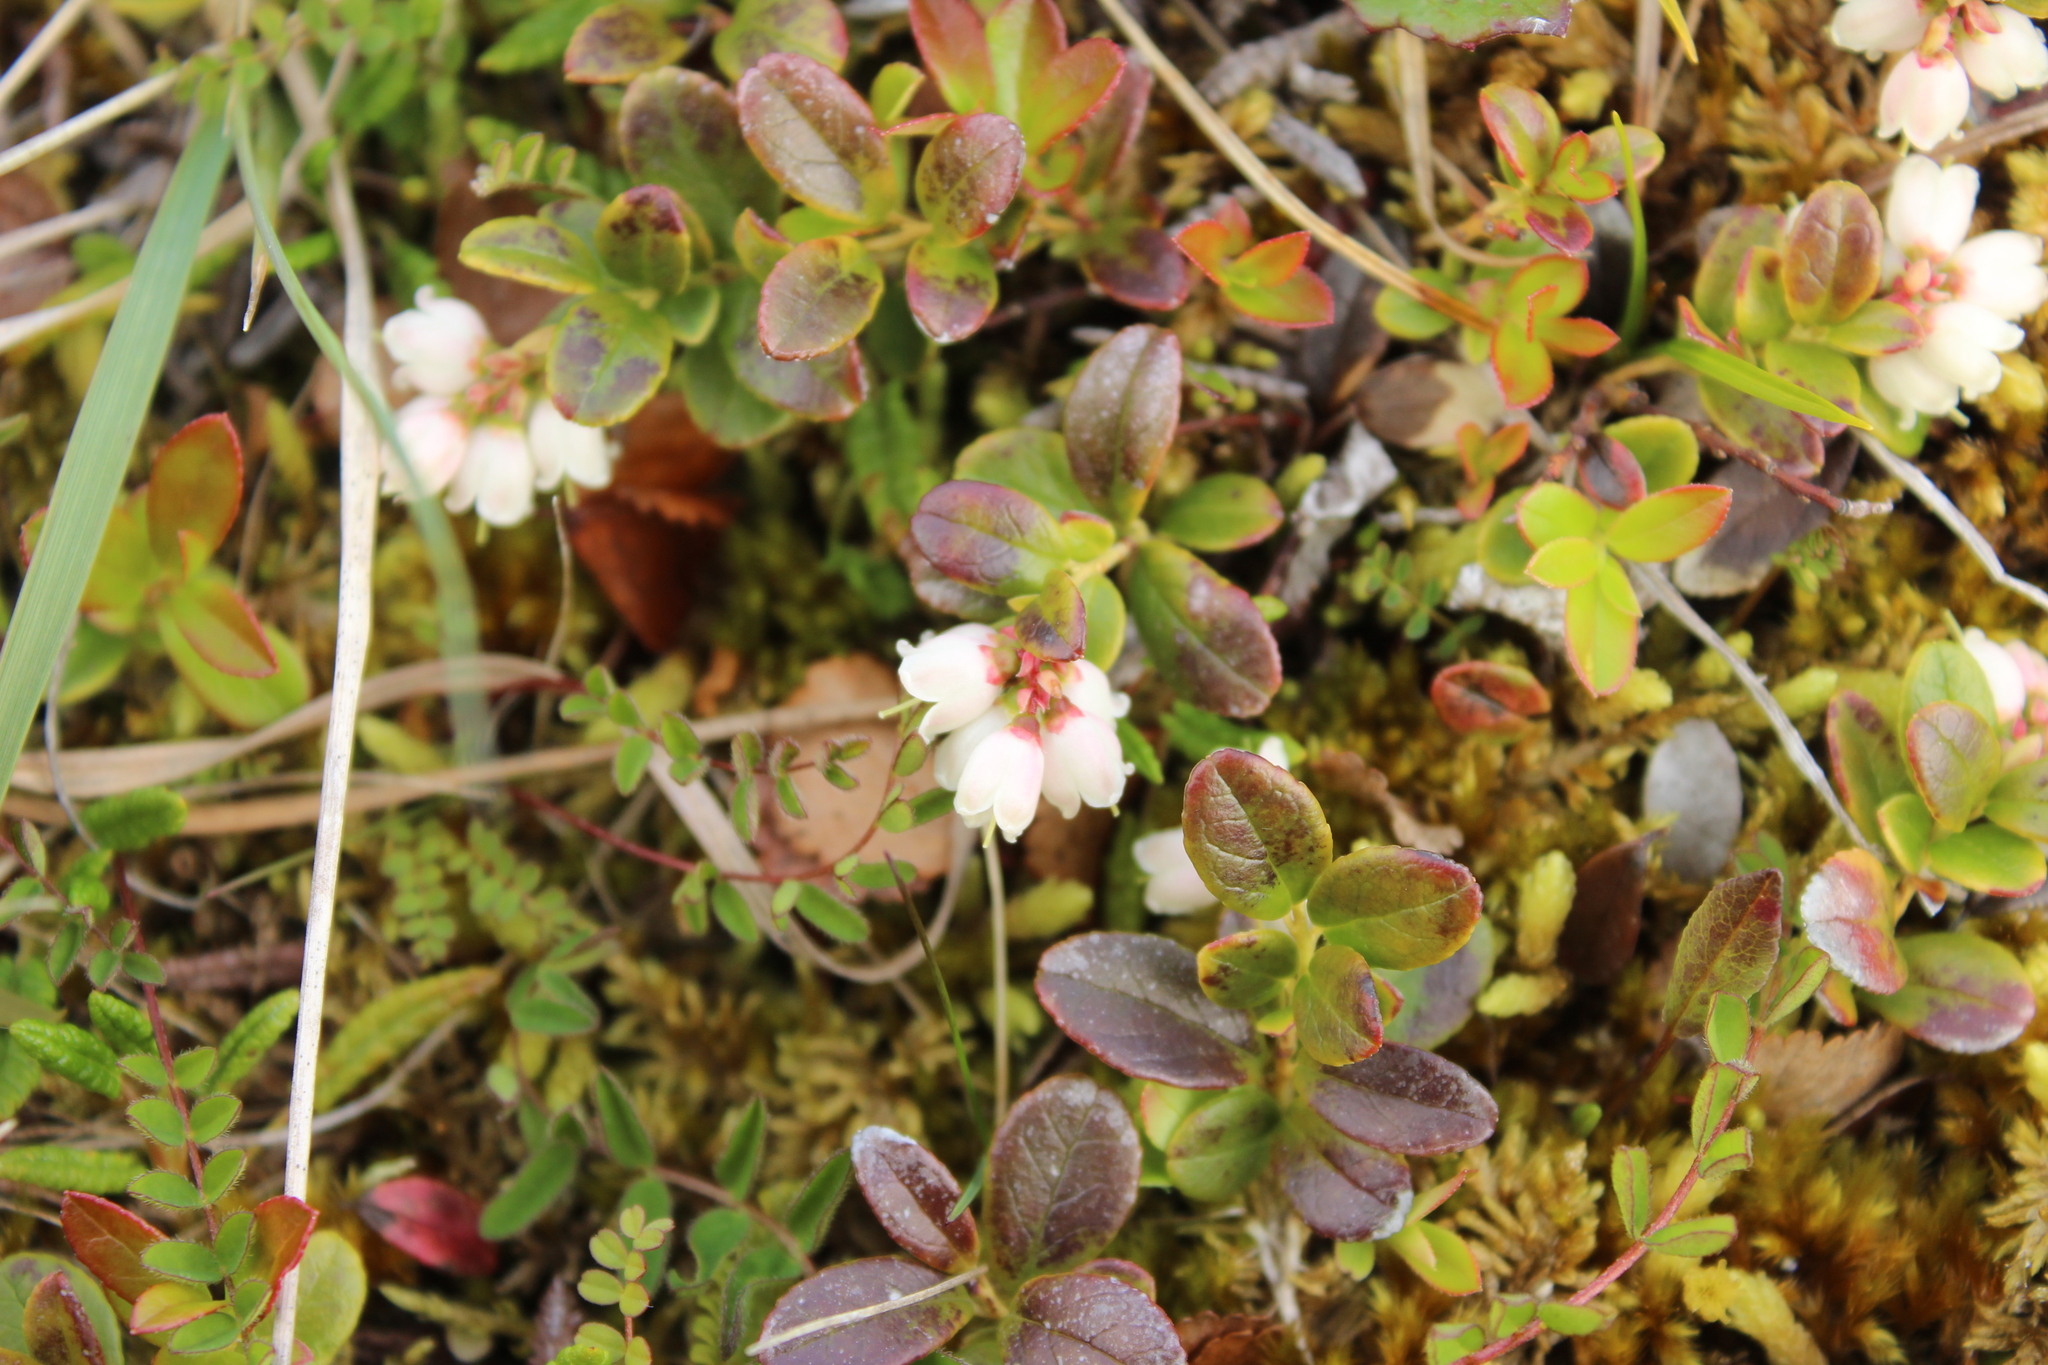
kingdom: Plantae
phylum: Tracheophyta
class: Magnoliopsida
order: Ericales
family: Ericaceae
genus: Vaccinium
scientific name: Vaccinium vitis-idaea
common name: Cowberry
